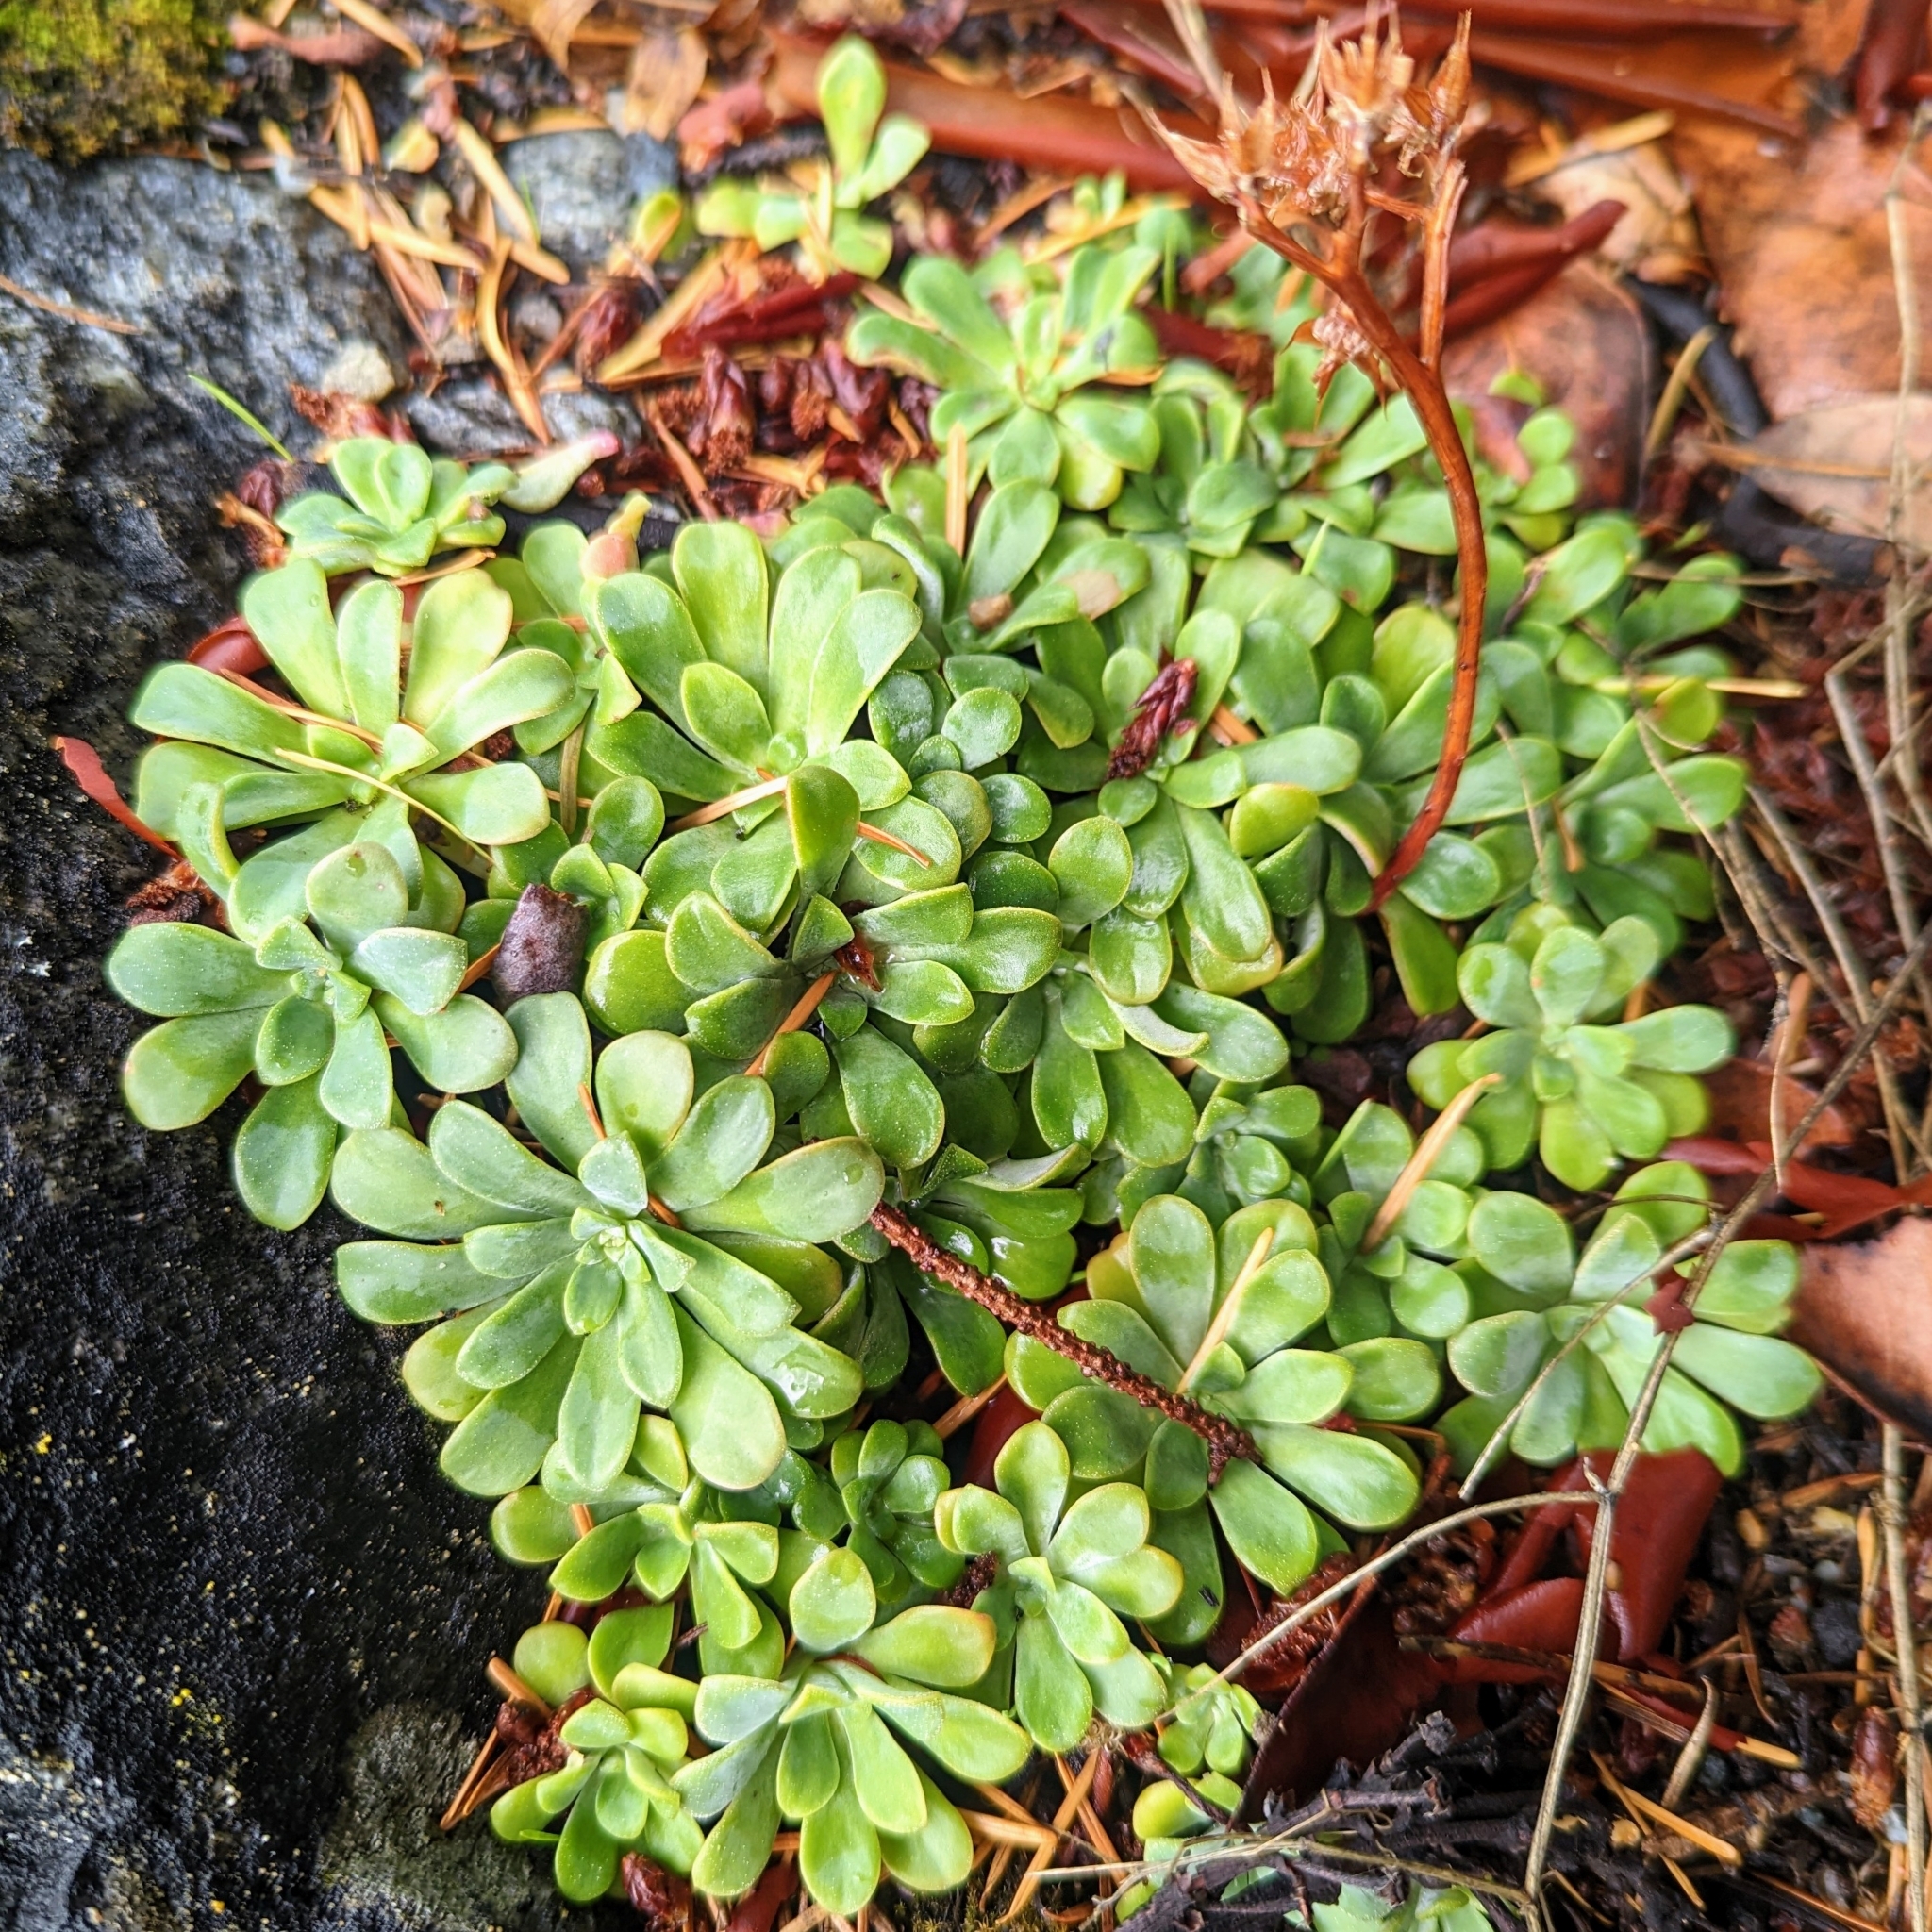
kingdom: Plantae
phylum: Tracheophyta
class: Magnoliopsida
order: Saxifragales
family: Crassulaceae
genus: Sedum
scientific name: Sedum spathulifolium
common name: Colorado stonecrop
